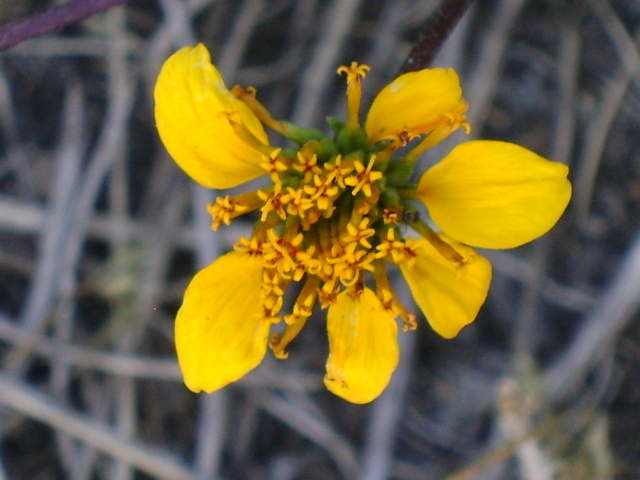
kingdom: Plantae
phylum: Tracheophyta
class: Magnoliopsida
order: Asterales
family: Asteraceae
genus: Sclerocarpus
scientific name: Sclerocarpus uniserialis
